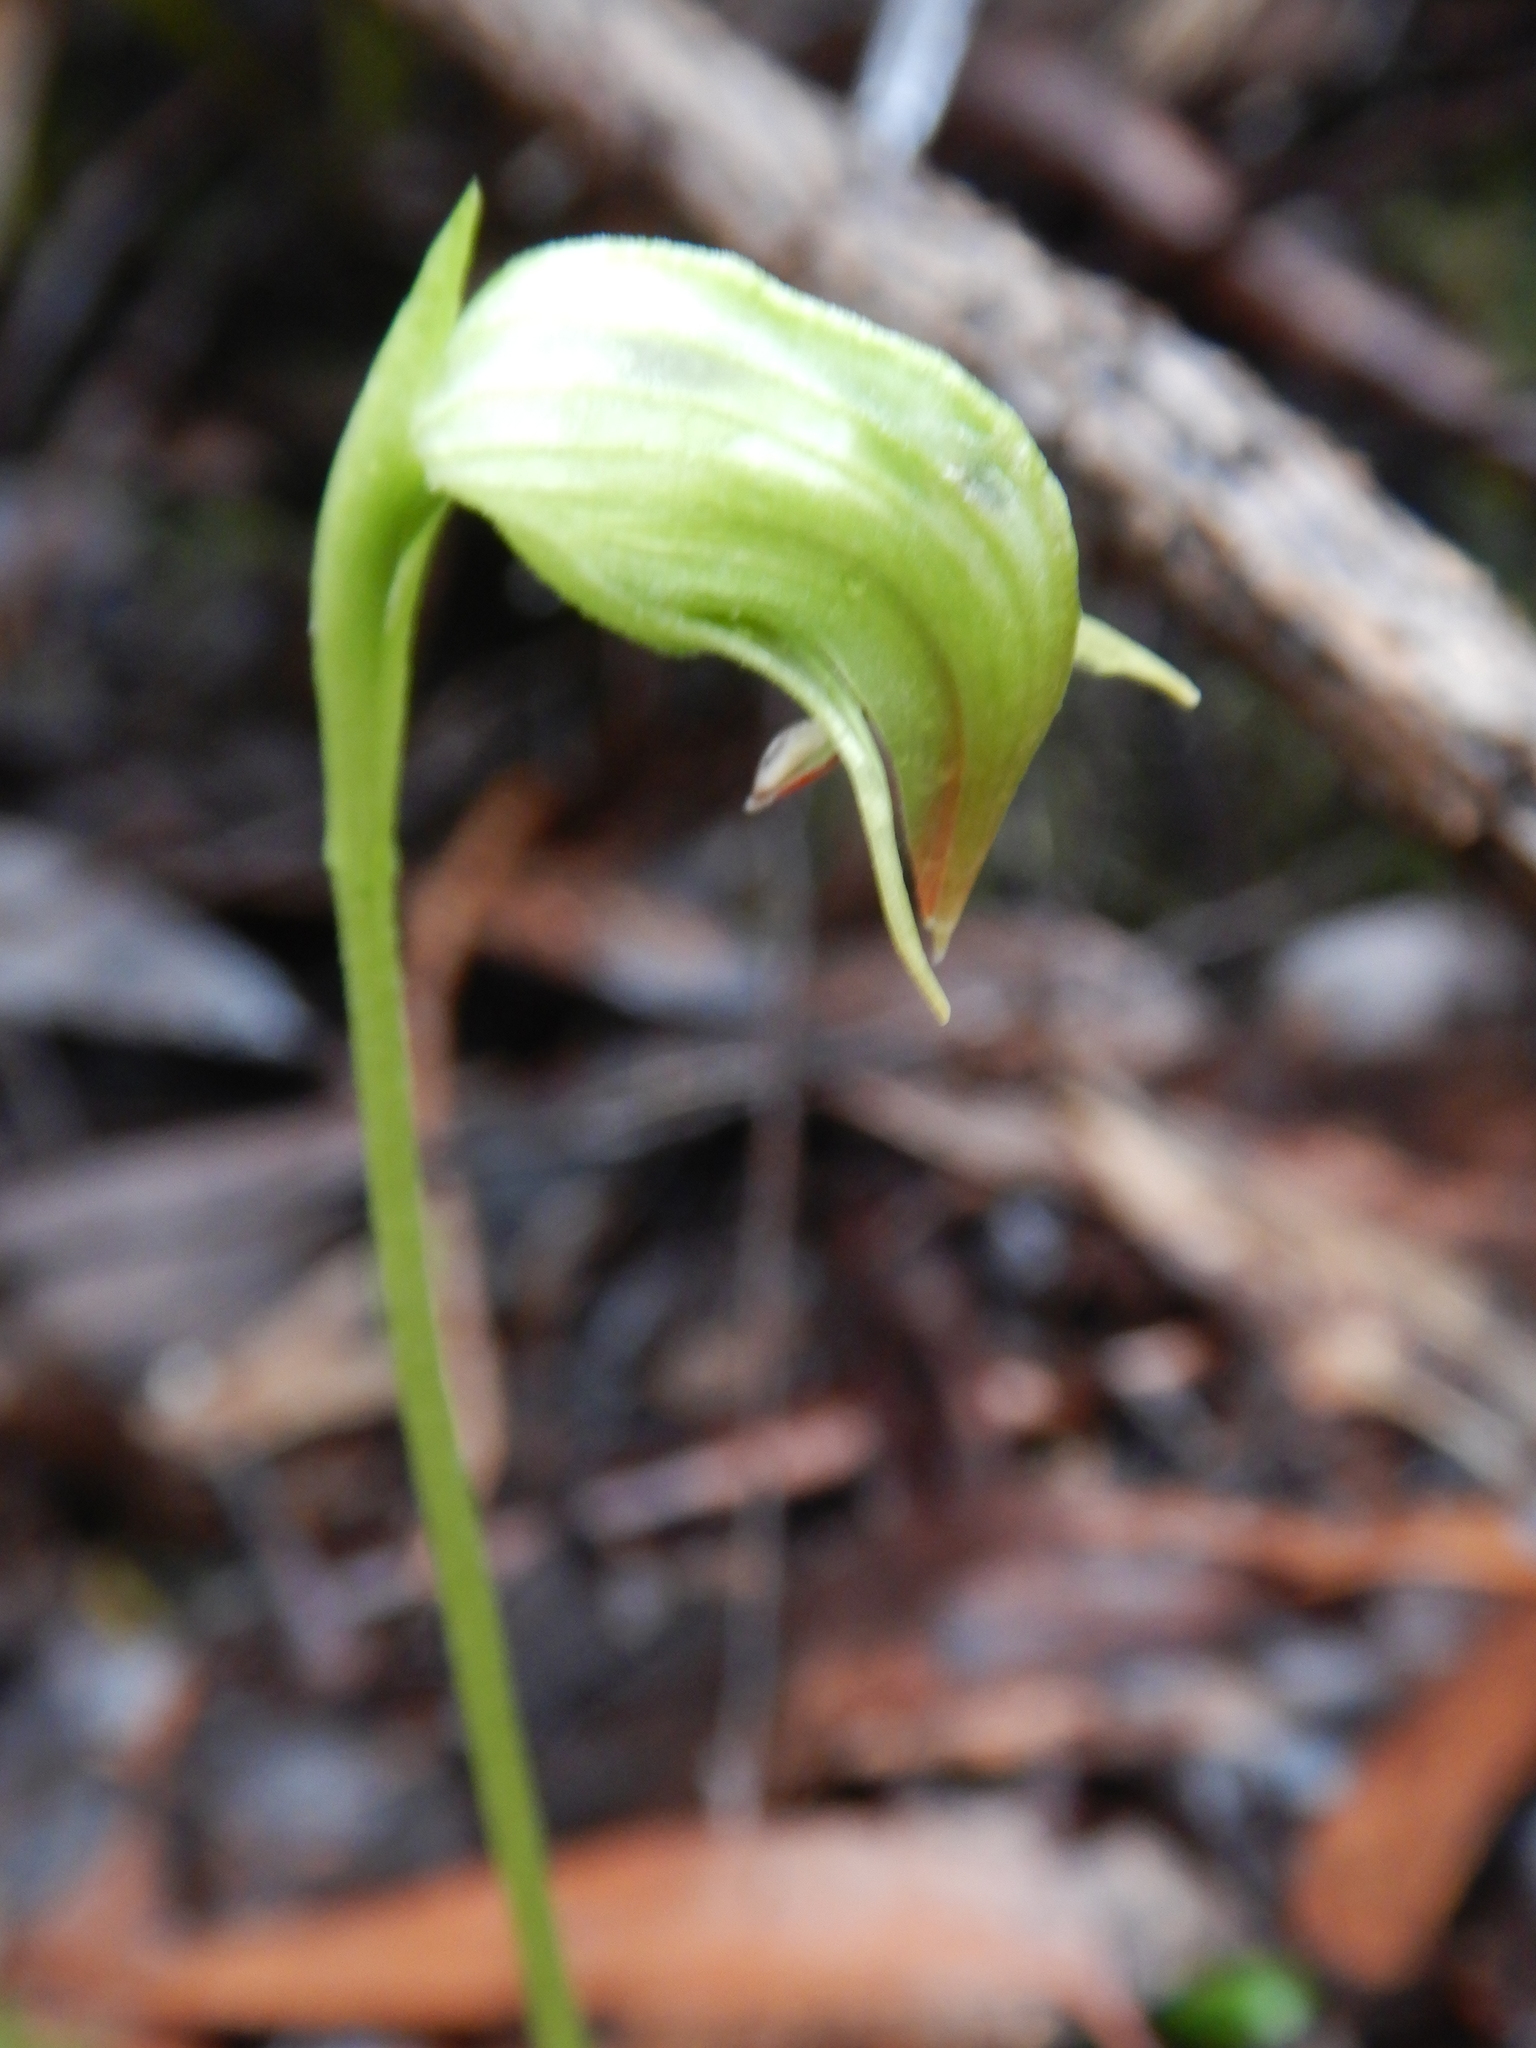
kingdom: Plantae
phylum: Tracheophyta
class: Liliopsida
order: Asparagales
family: Orchidaceae
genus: Pterostylis
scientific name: Pterostylis nutans
